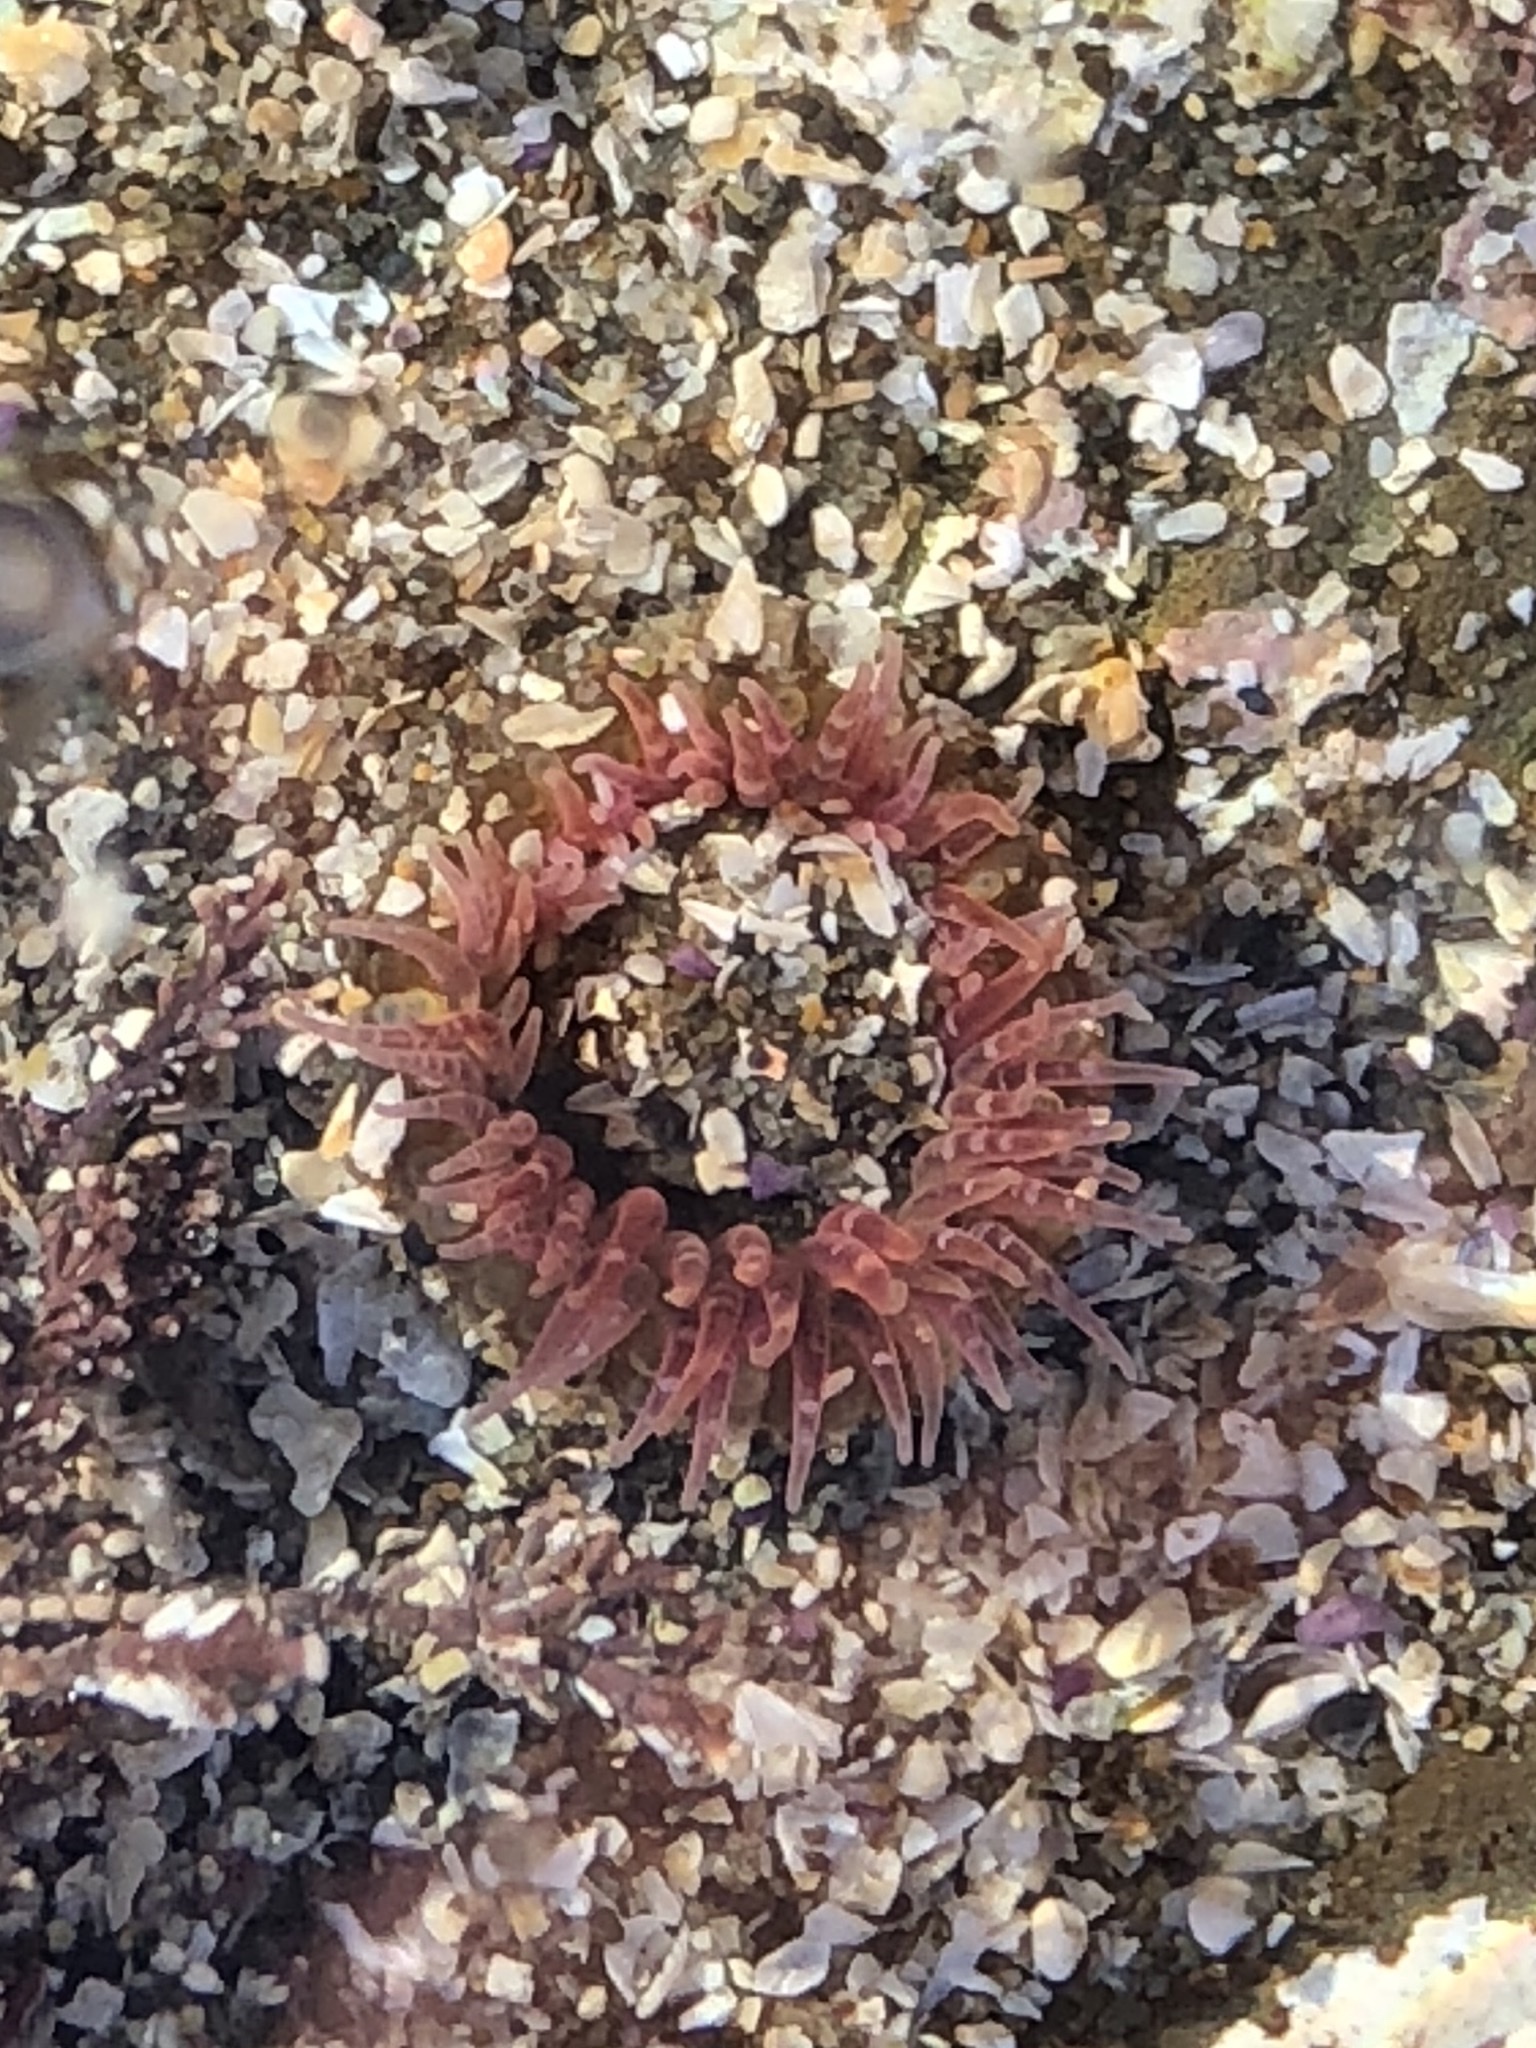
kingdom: Animalia
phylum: Cnidaria
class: Anthozoa
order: Actiniaria
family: Actiniidae
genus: Anthopleura
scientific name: Anthopleura artemisia
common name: Buried sea anemone
